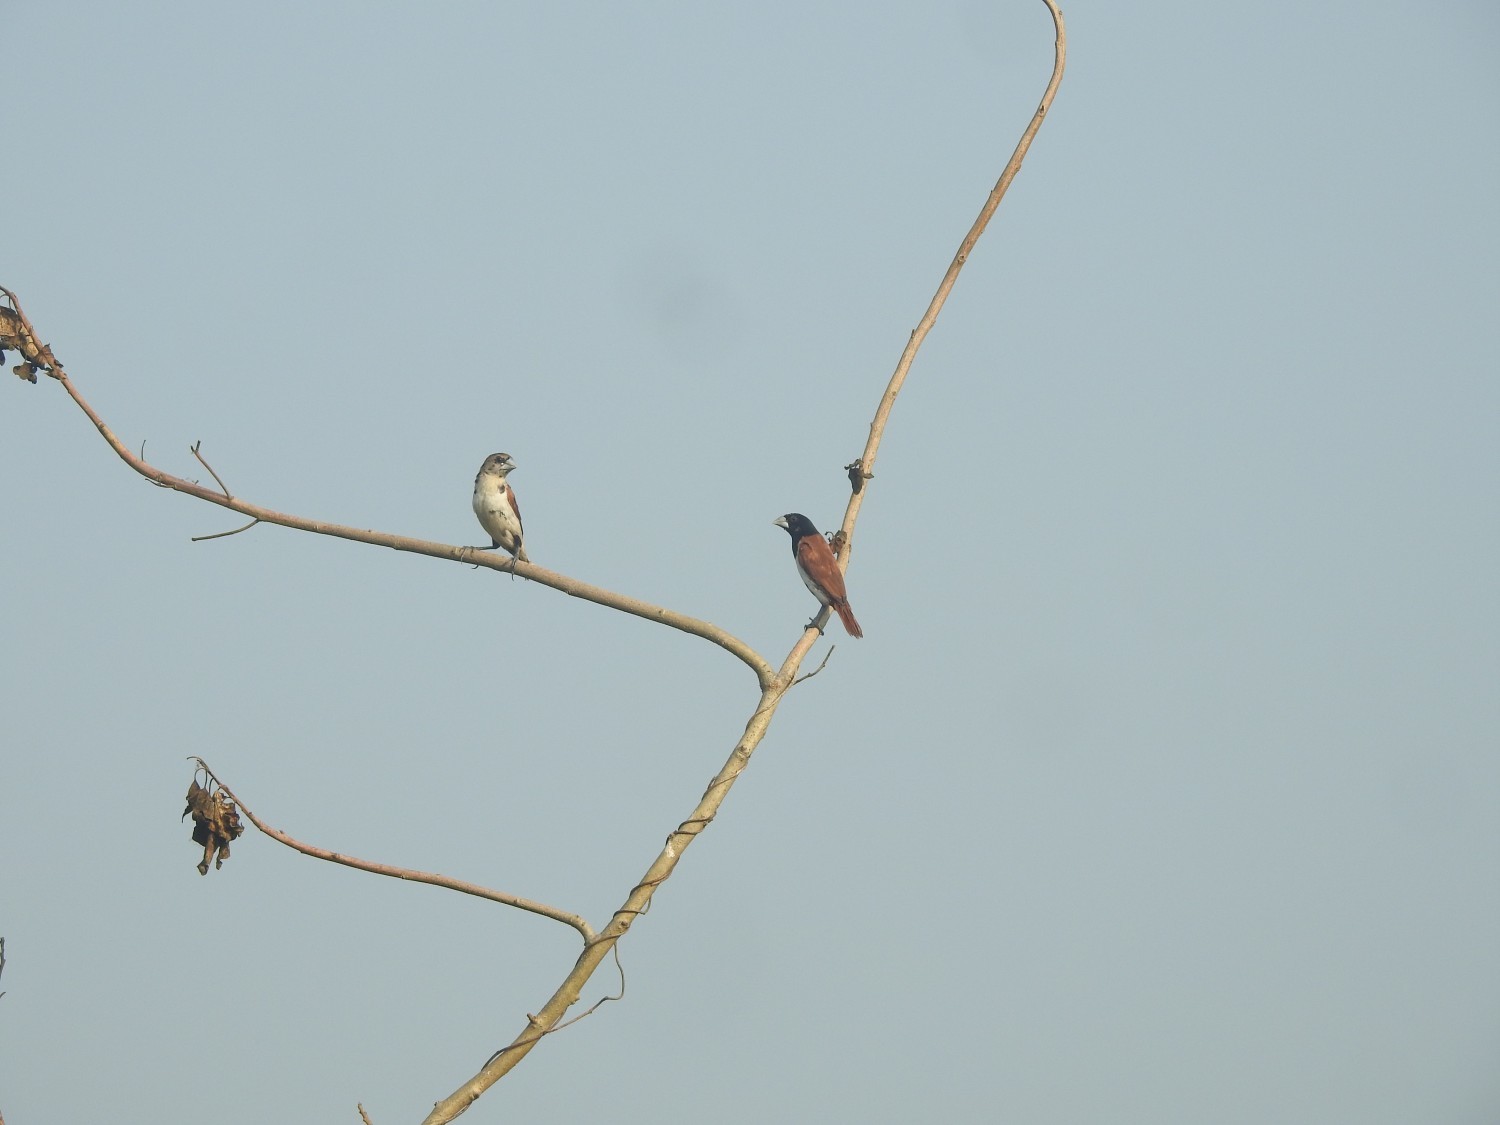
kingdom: Animalia
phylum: Chordata
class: Aves
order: Passeriformes
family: Estrildidae
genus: Lonchura
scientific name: Lonchura malacca
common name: Tricolored munia
